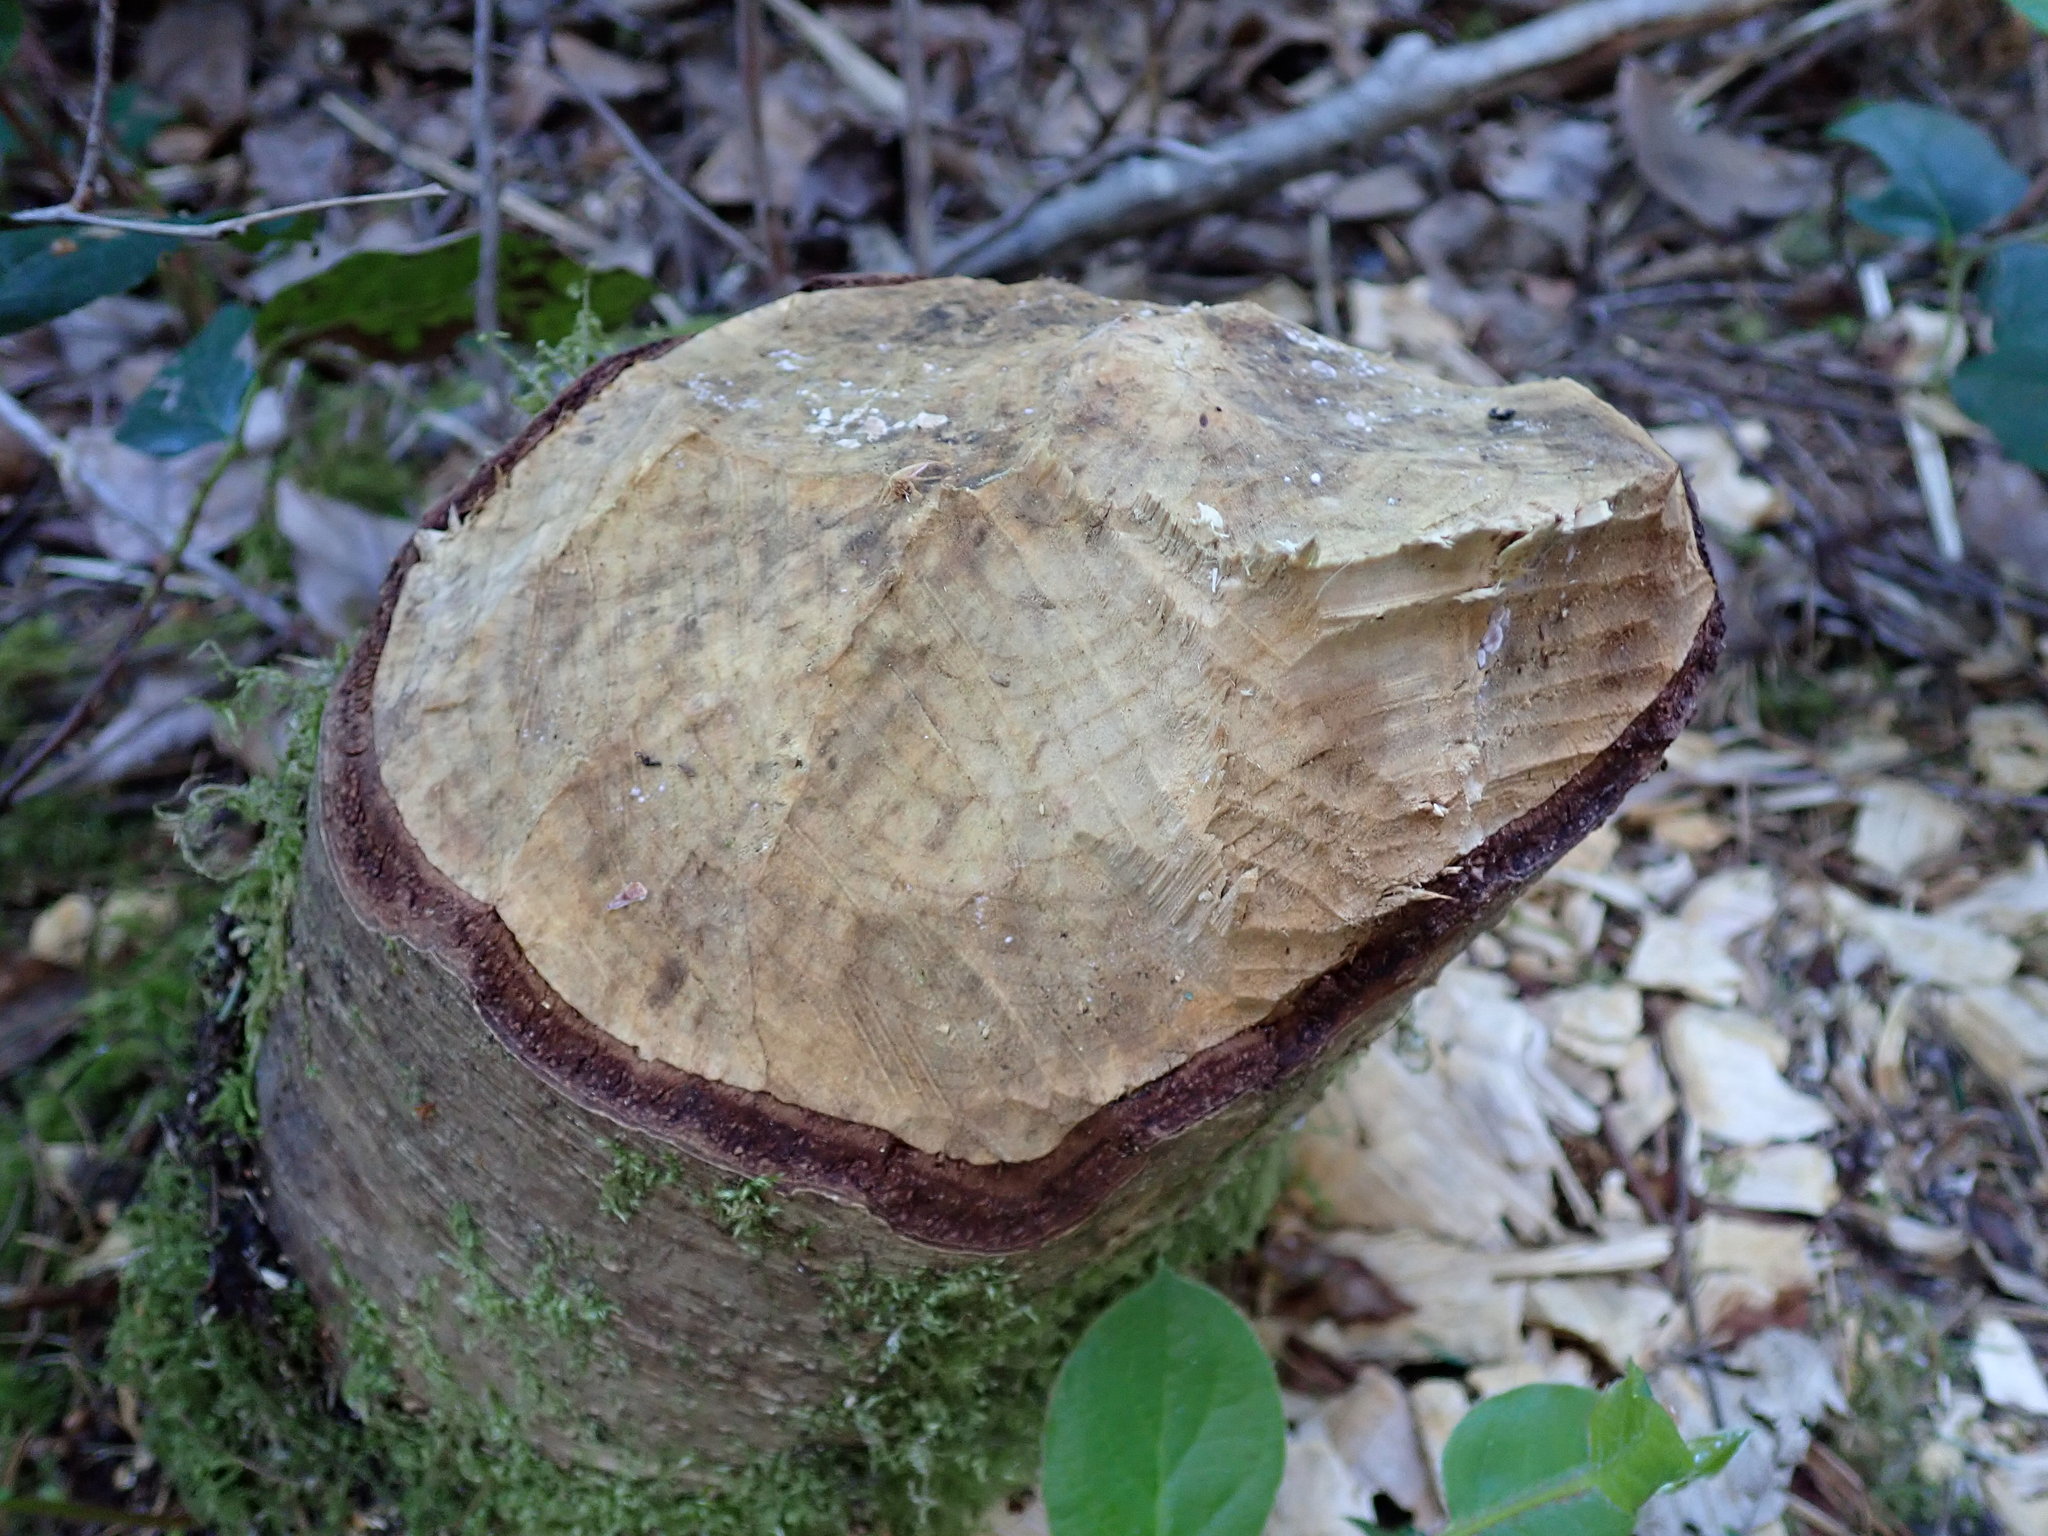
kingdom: Animalia
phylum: Chordata
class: Mammalia
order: Rodentia
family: Castoridae
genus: Castor
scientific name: Castor canadensis
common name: American beaver
